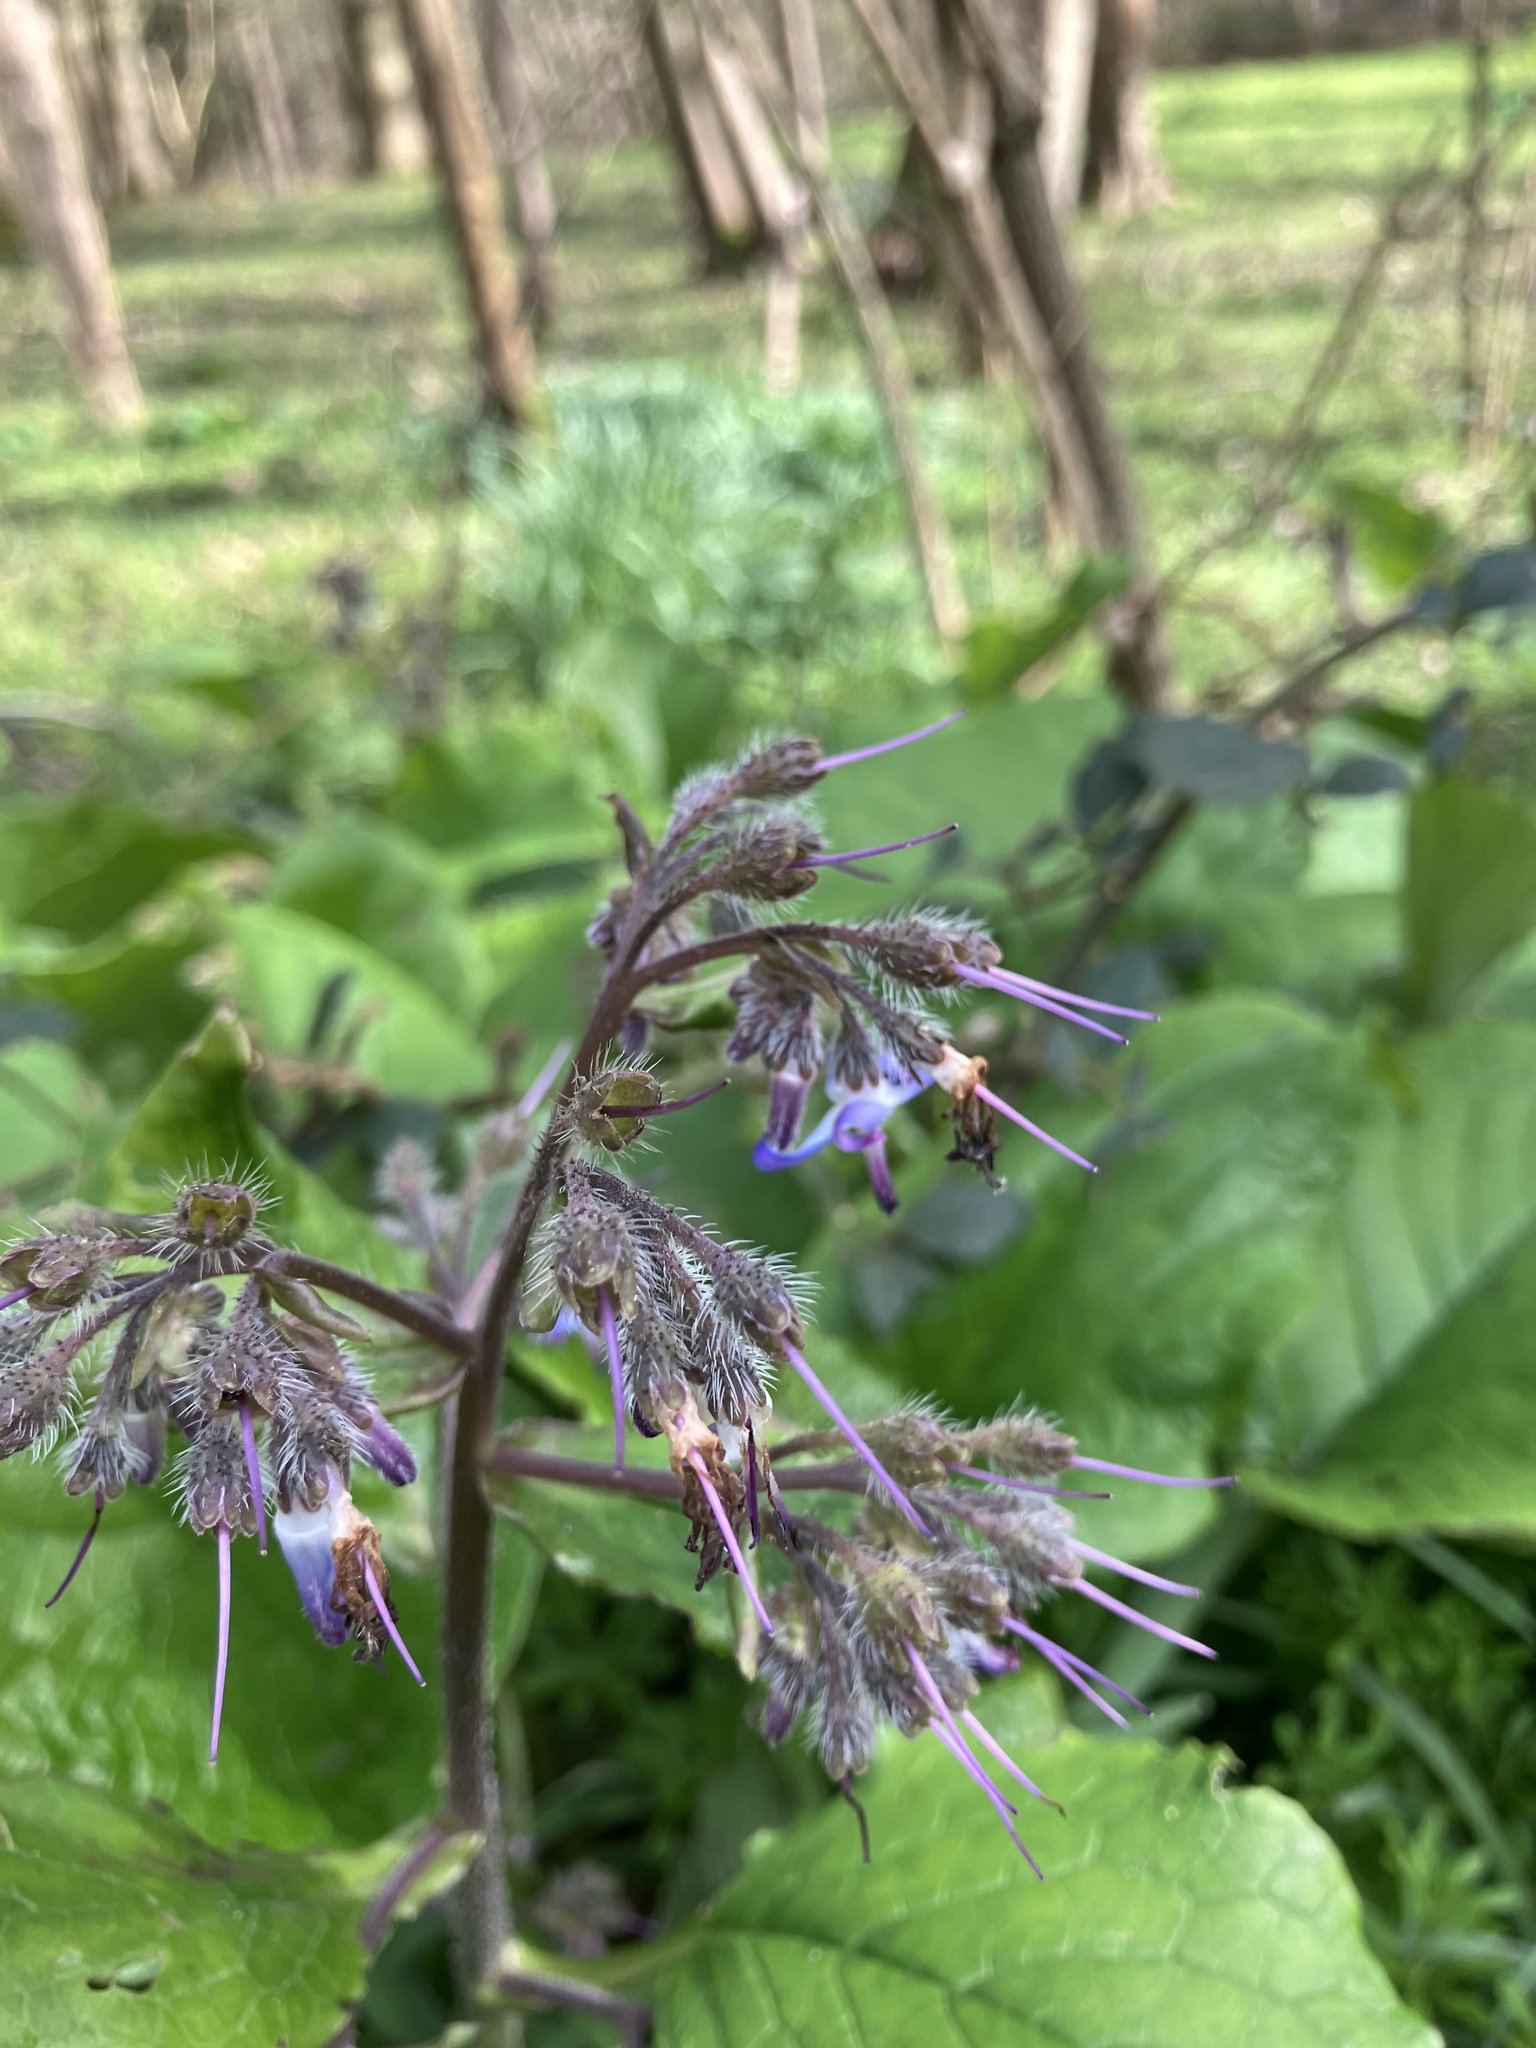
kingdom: Plantae
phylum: Tracheophyta
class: Magnoliopsida
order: Boraginales
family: Boraginaceae
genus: Trachystemon
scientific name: Trachystemon orientale
